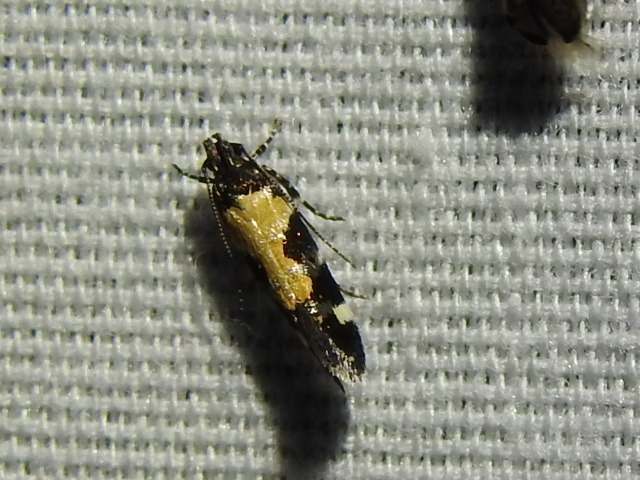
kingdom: Animalia
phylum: Arthropoda
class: Insecta
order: Lepidoptera
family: Gelechiidae
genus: Stegasta
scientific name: Stegasta bosqueella
